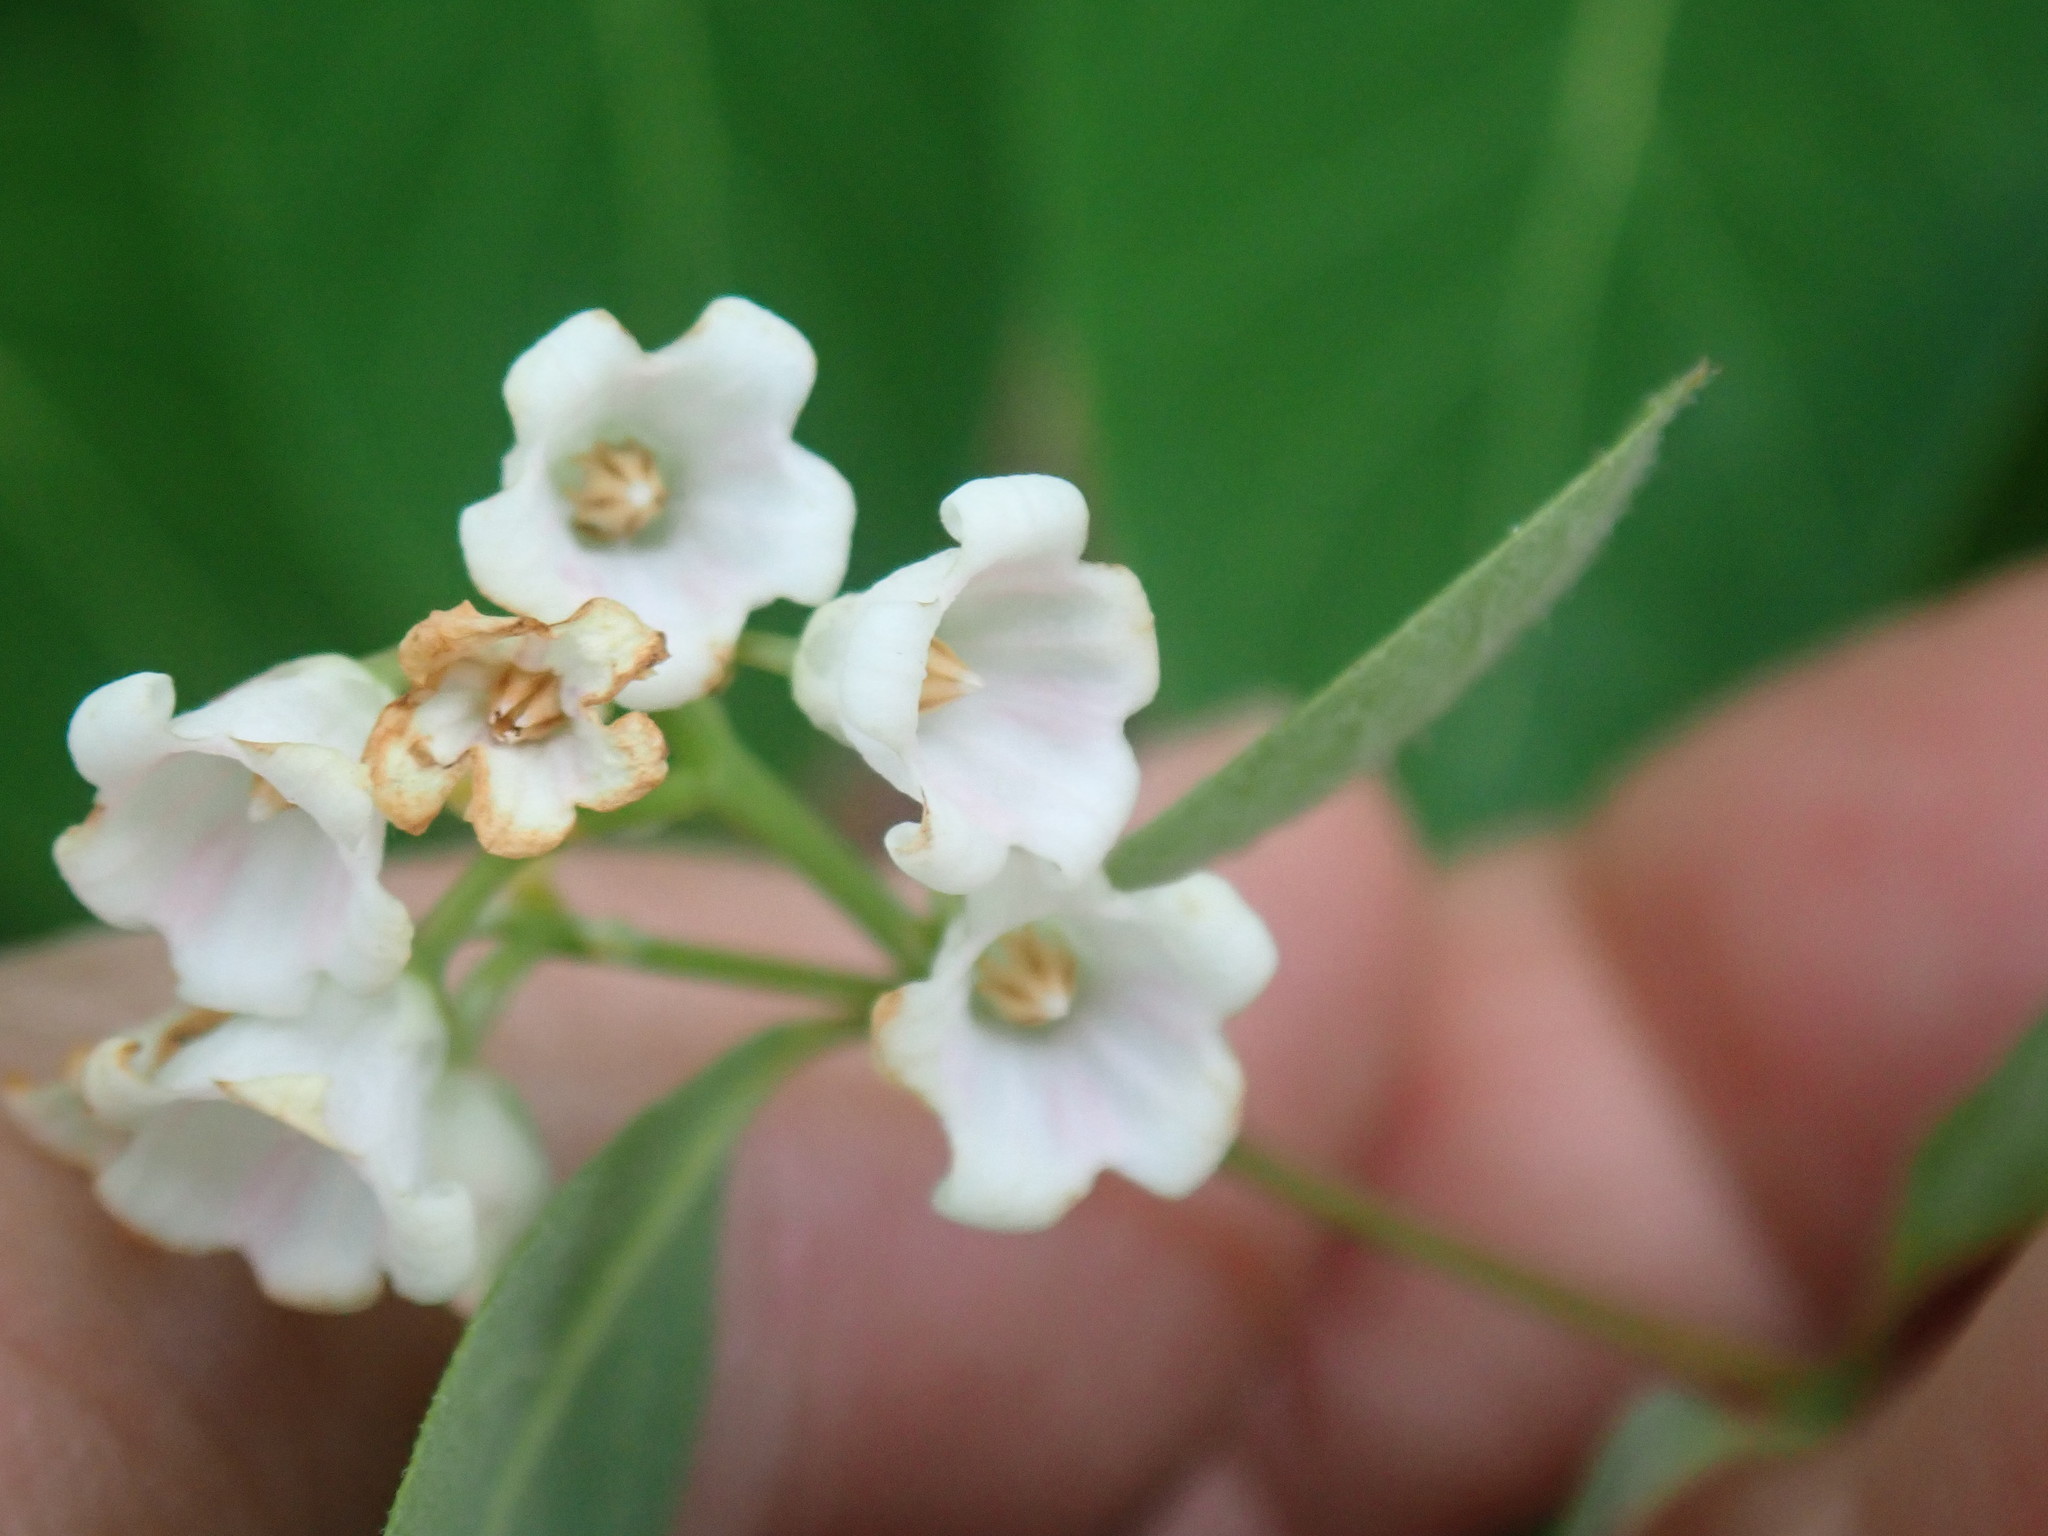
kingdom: Plantae
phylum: Tracheophyta
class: Magnoliopsida
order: Gentianales
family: Apocynaceae
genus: Apocynum
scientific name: Apocynum androsaemifolium
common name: Spreading dogbane
